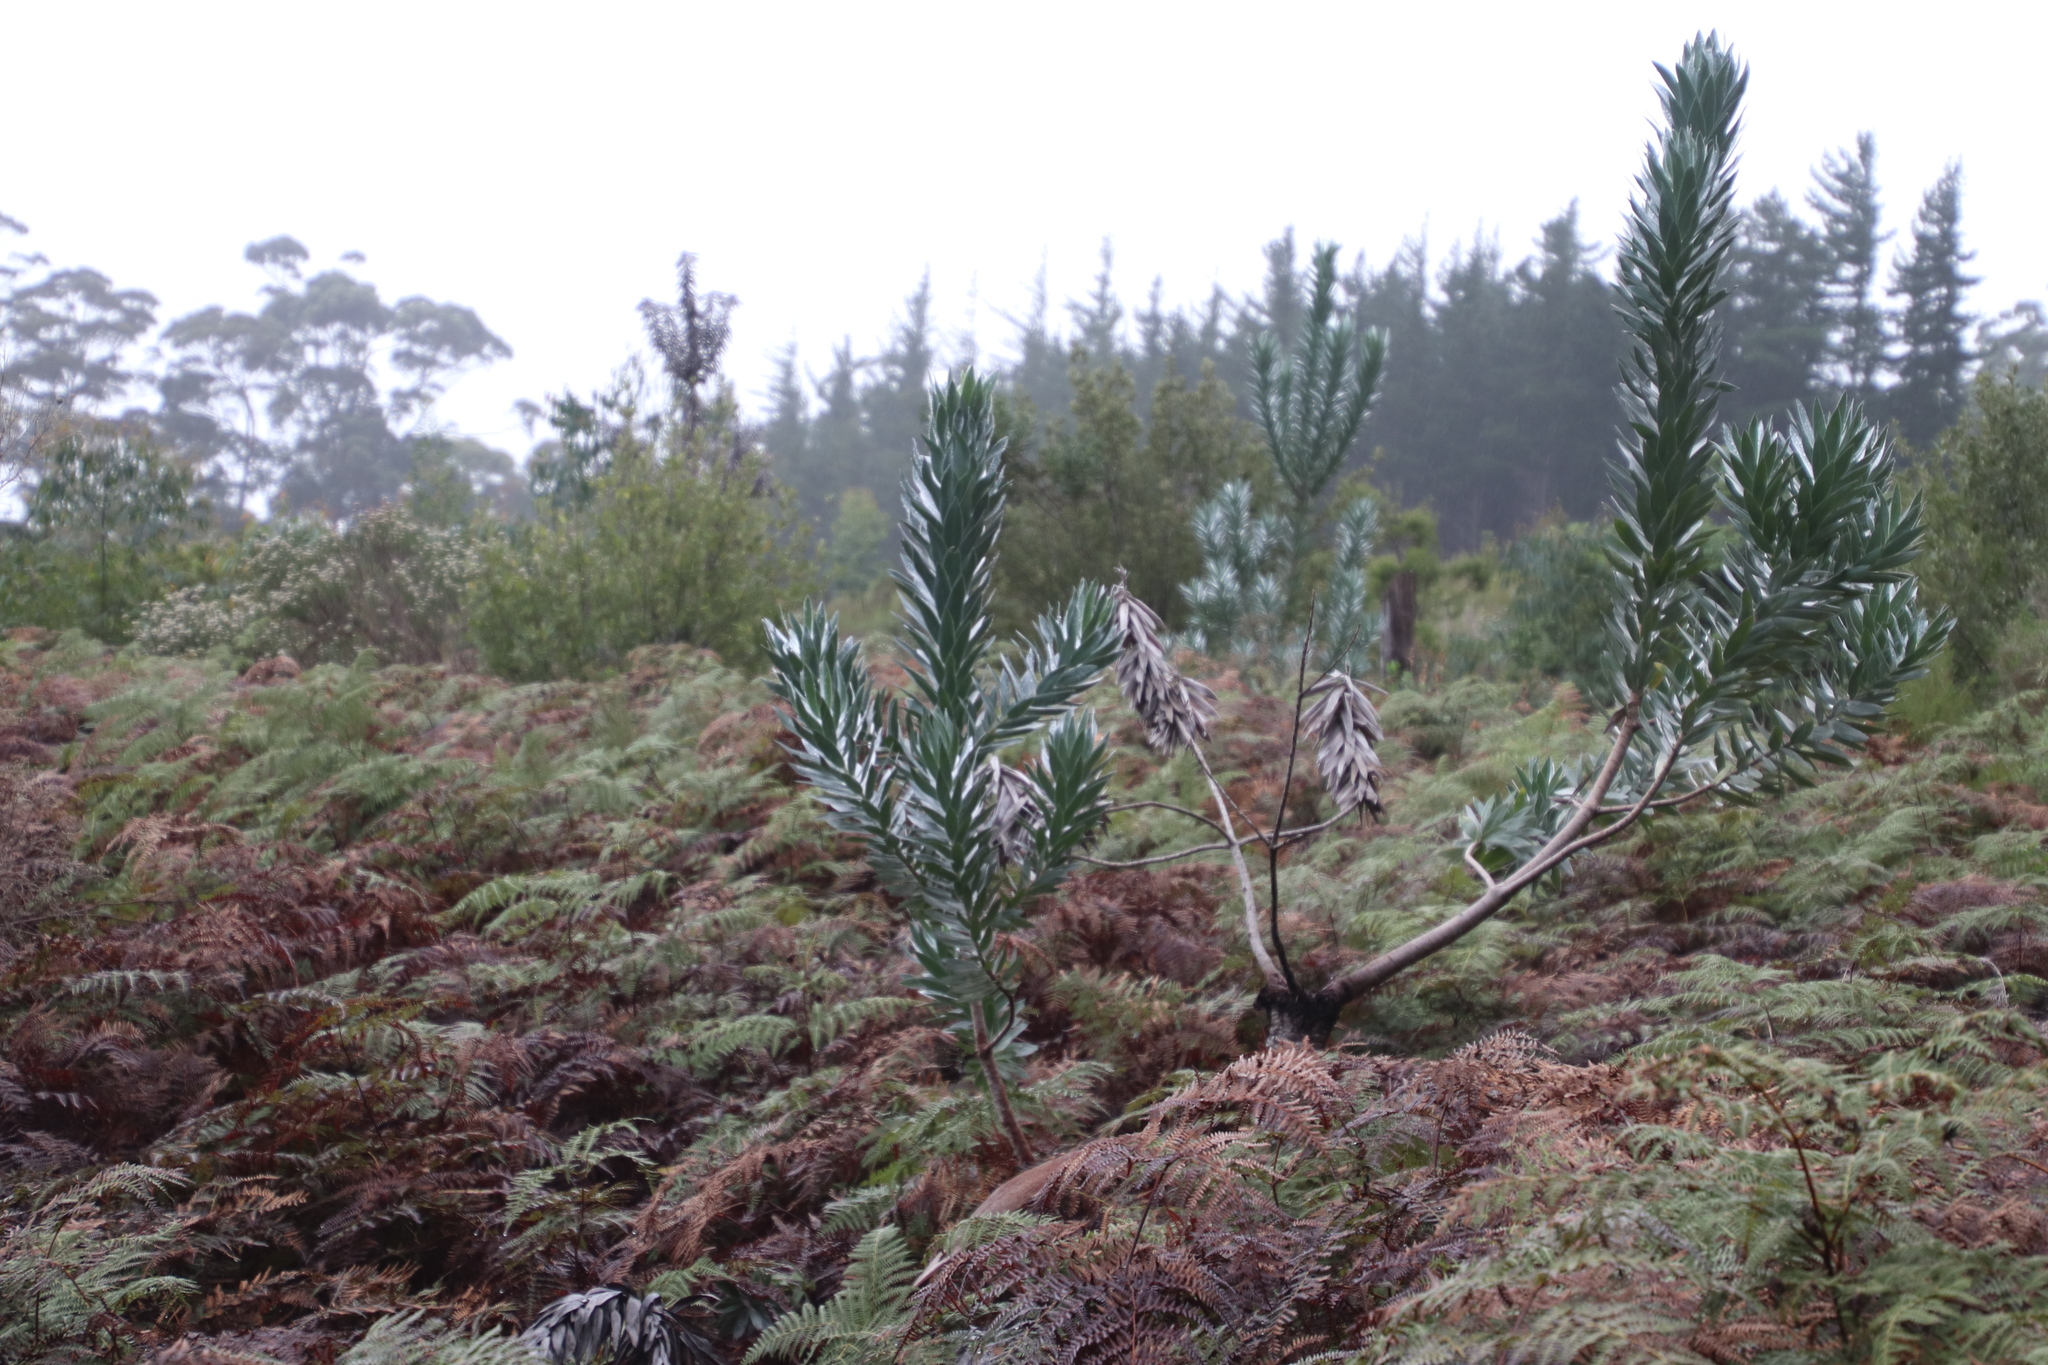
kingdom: Plantae
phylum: Tracheophyta
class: Magnoliopsida
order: Proteales
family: Proteaceae
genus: Leucadendron
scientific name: Leucadendron argenteum
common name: Cape silver tree
